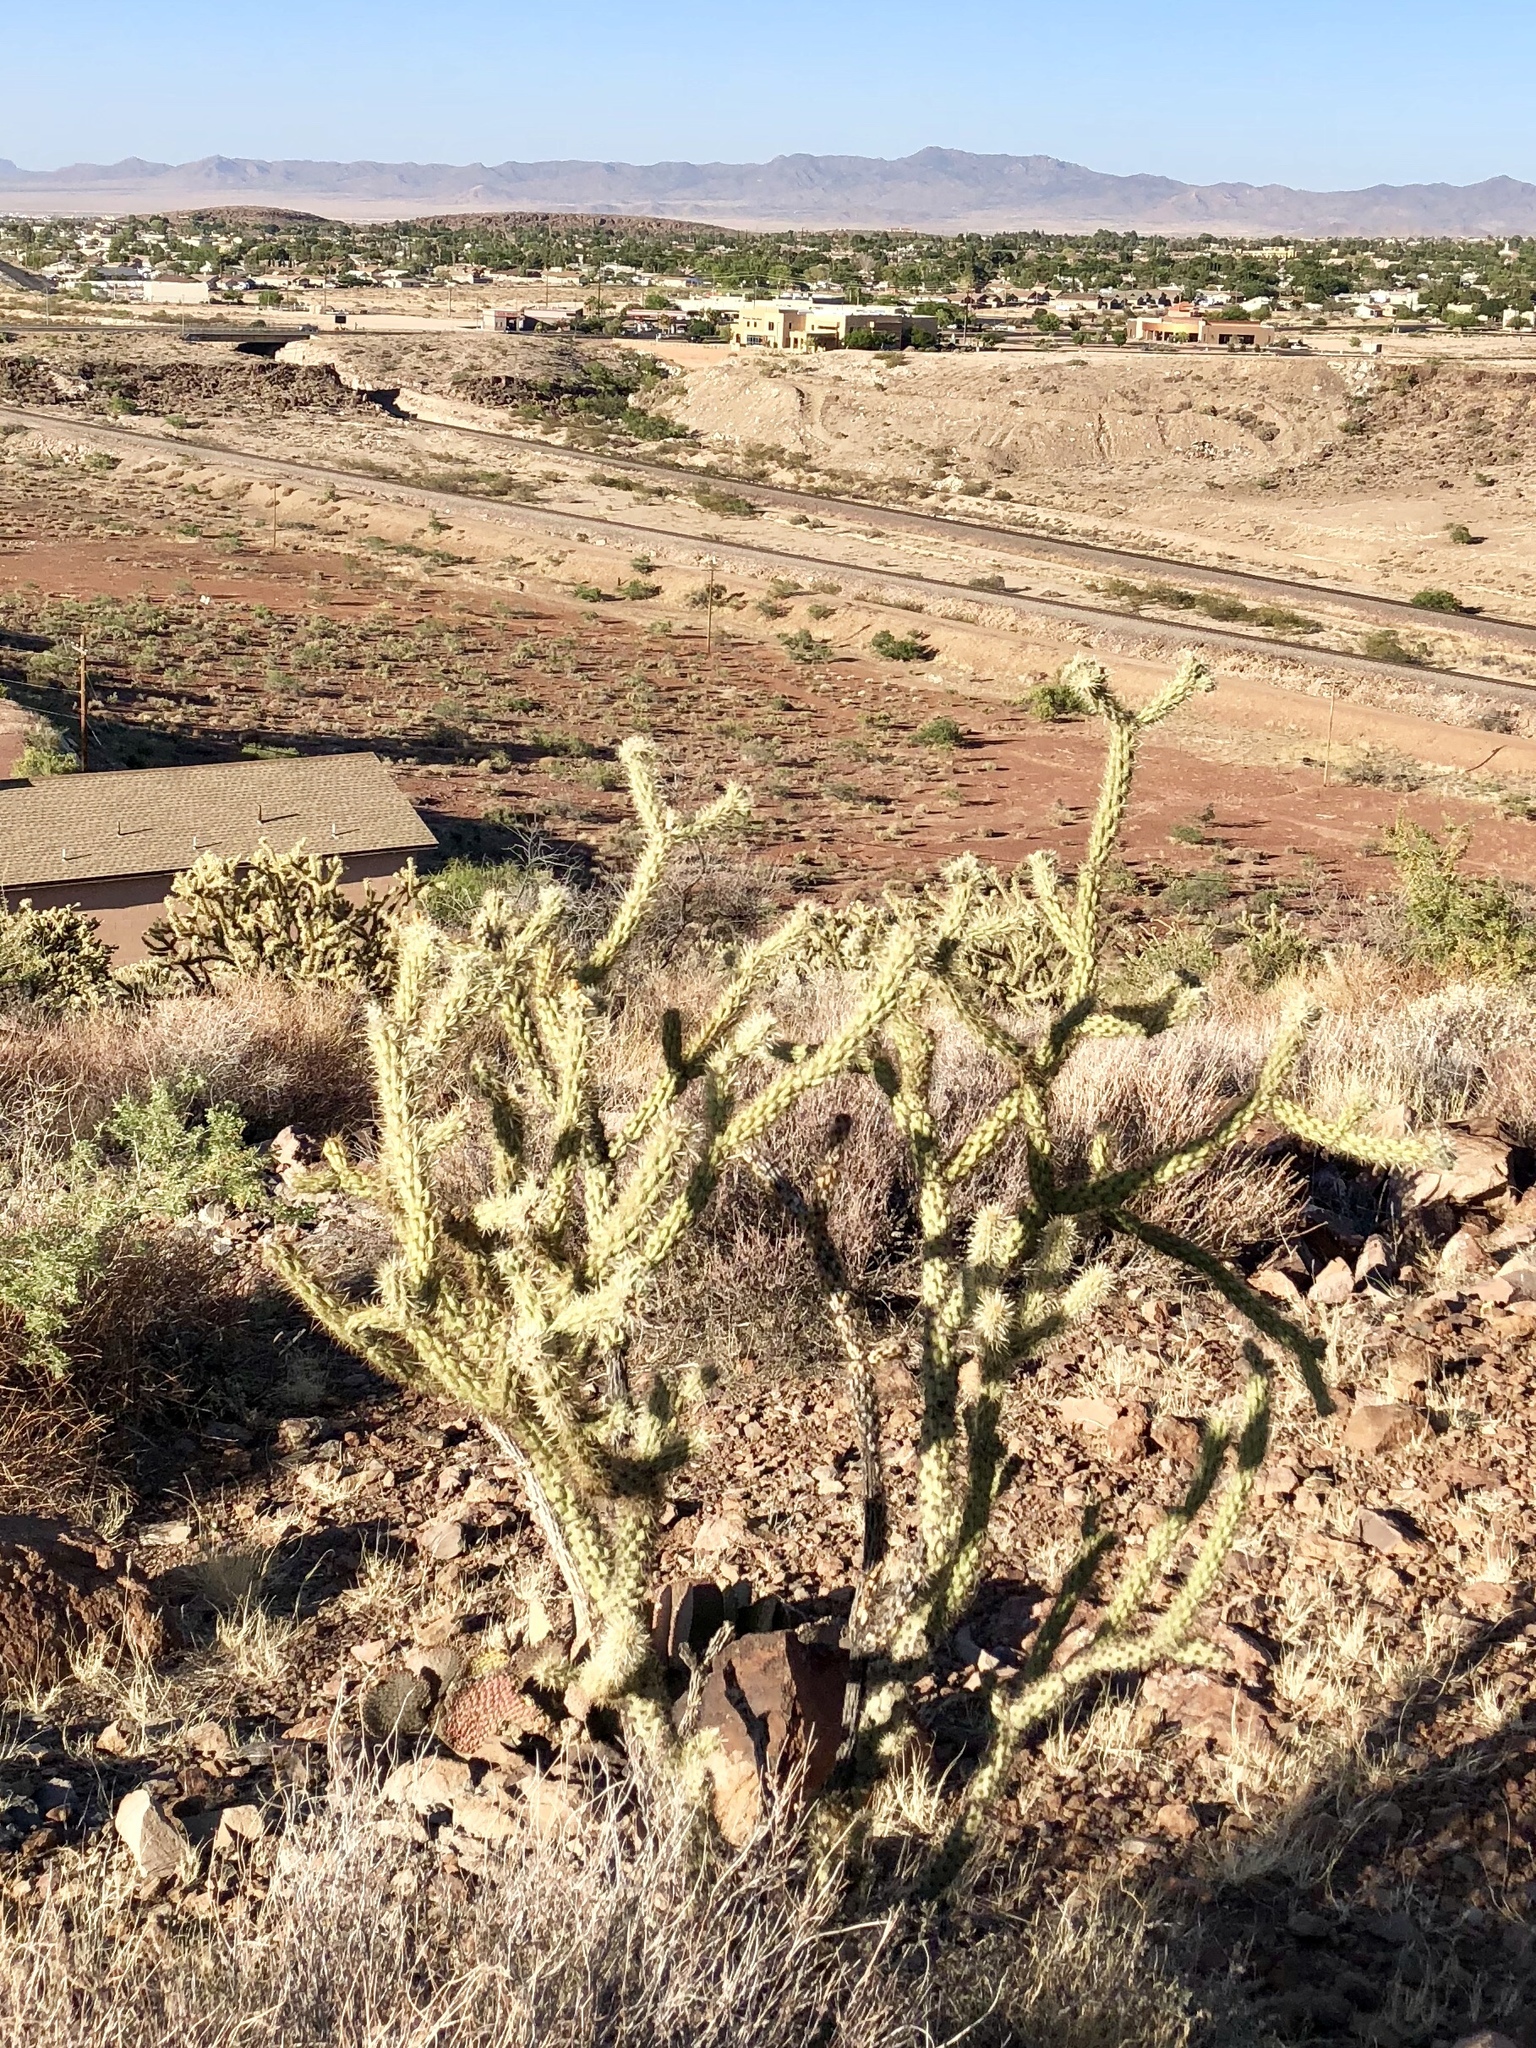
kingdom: Plantae
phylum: Tracheophyta
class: Magnoliopsida
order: Caryophyllales
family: Cactaceae
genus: Cylindropuntia
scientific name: Cylindropuntia acanthocarpa
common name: Buckhorn cholla
